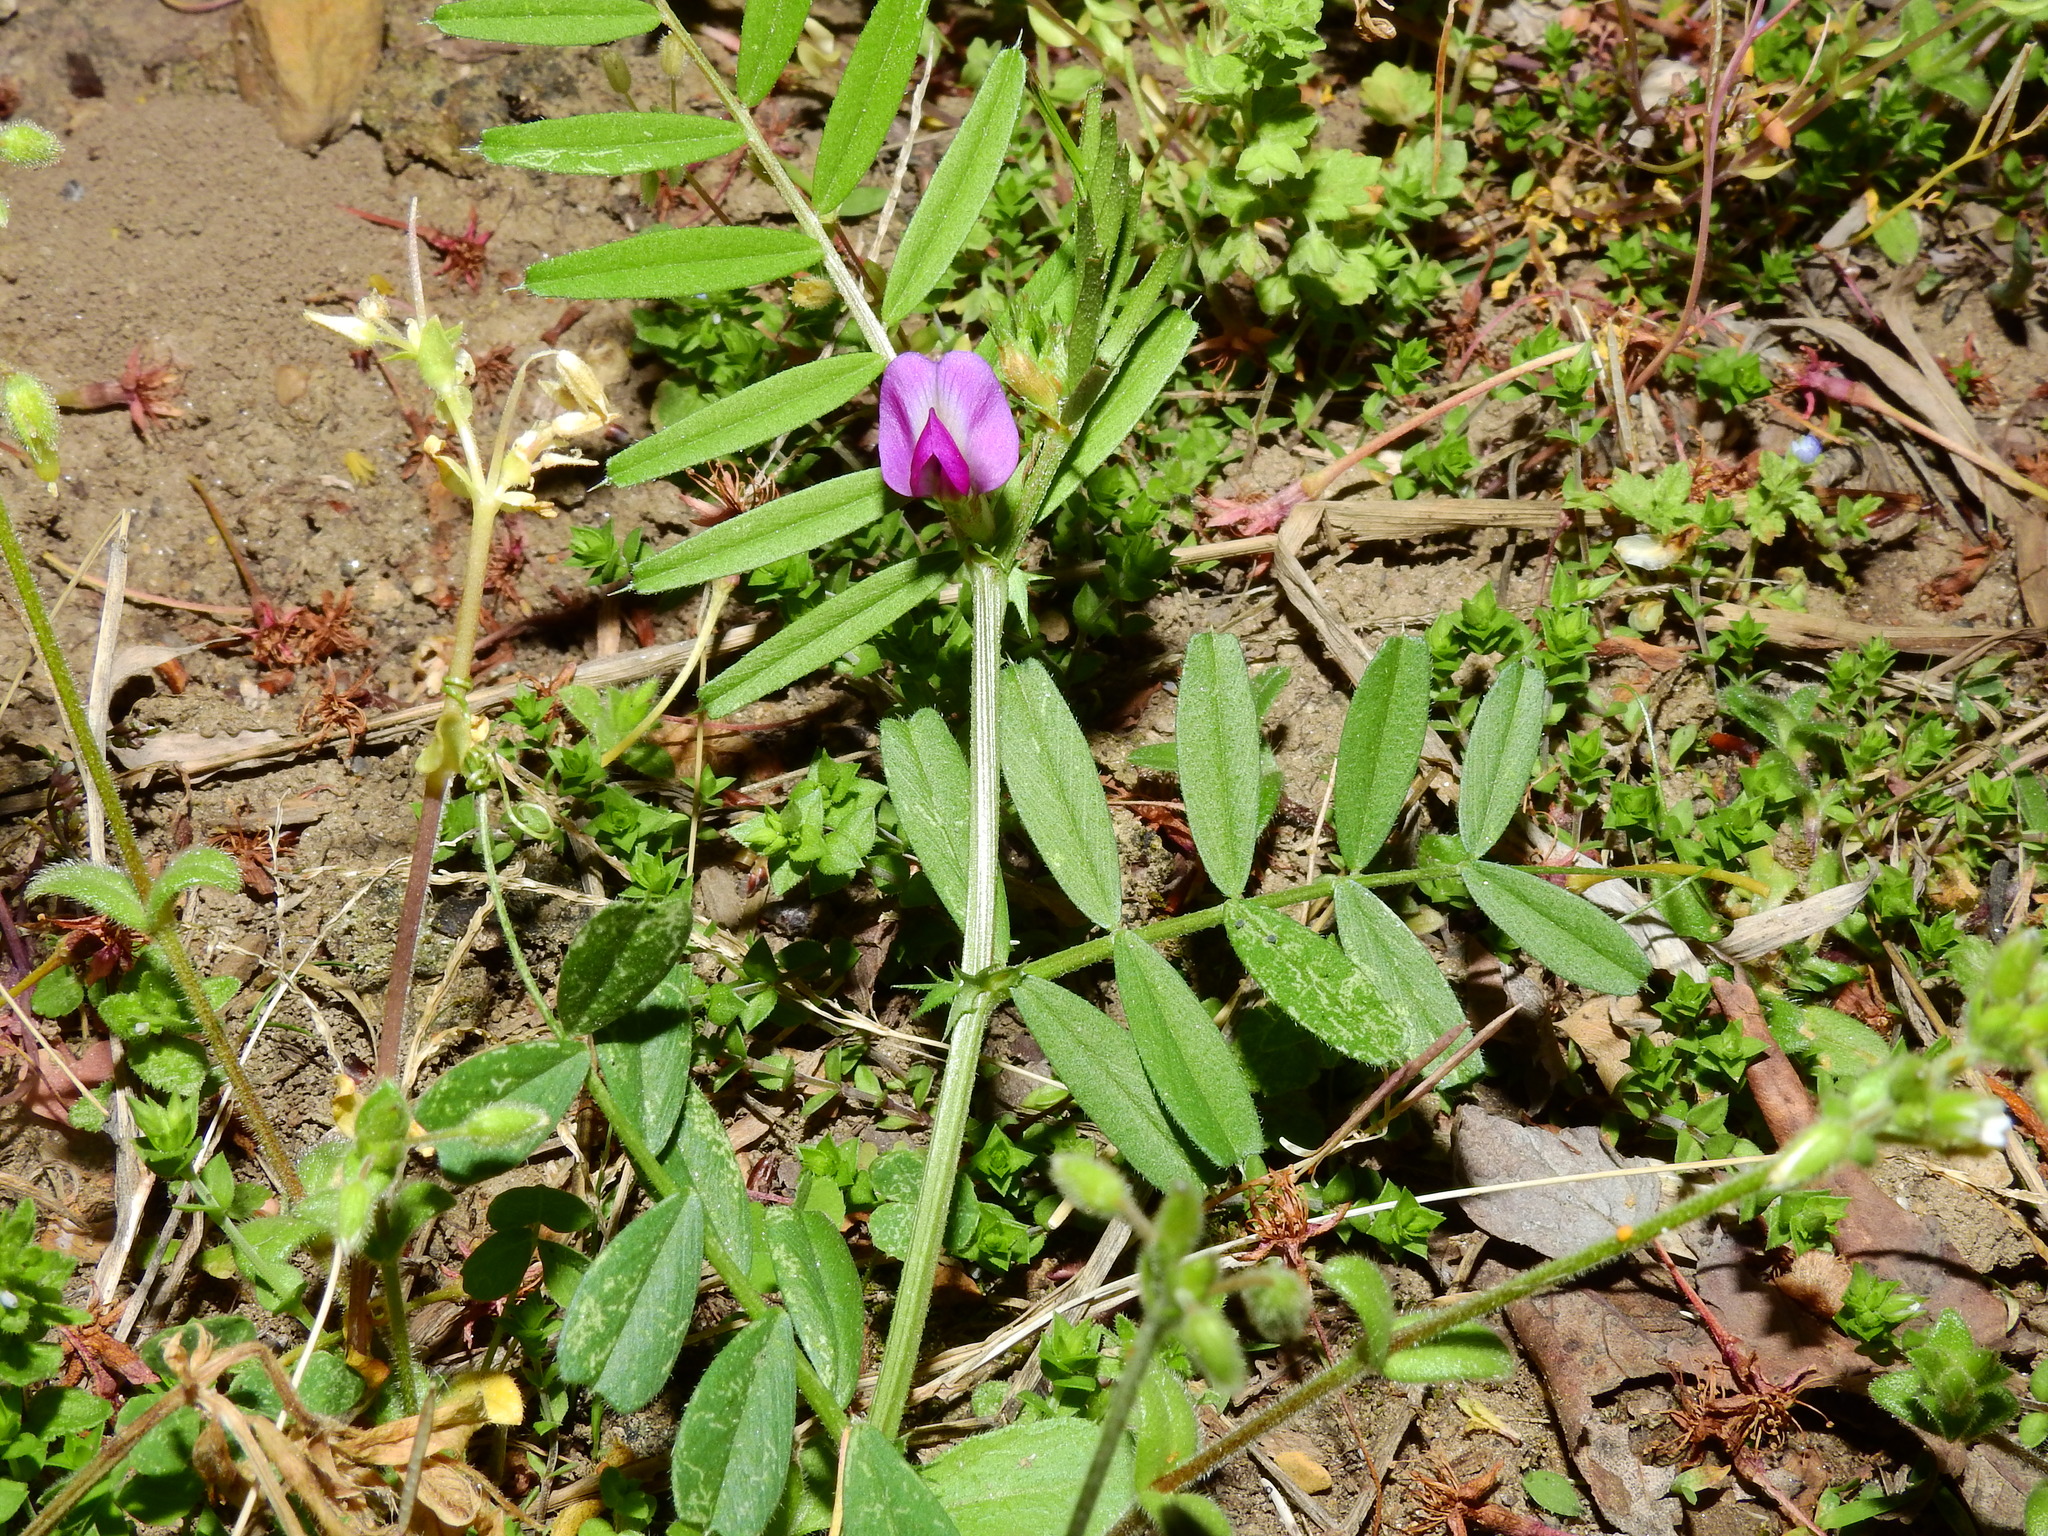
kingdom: Plantae
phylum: Tracheophyta
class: Magnoliopsida
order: Fabales
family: Fabaceae
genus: Vicia
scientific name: Vicia sativa
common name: Garden vetch
